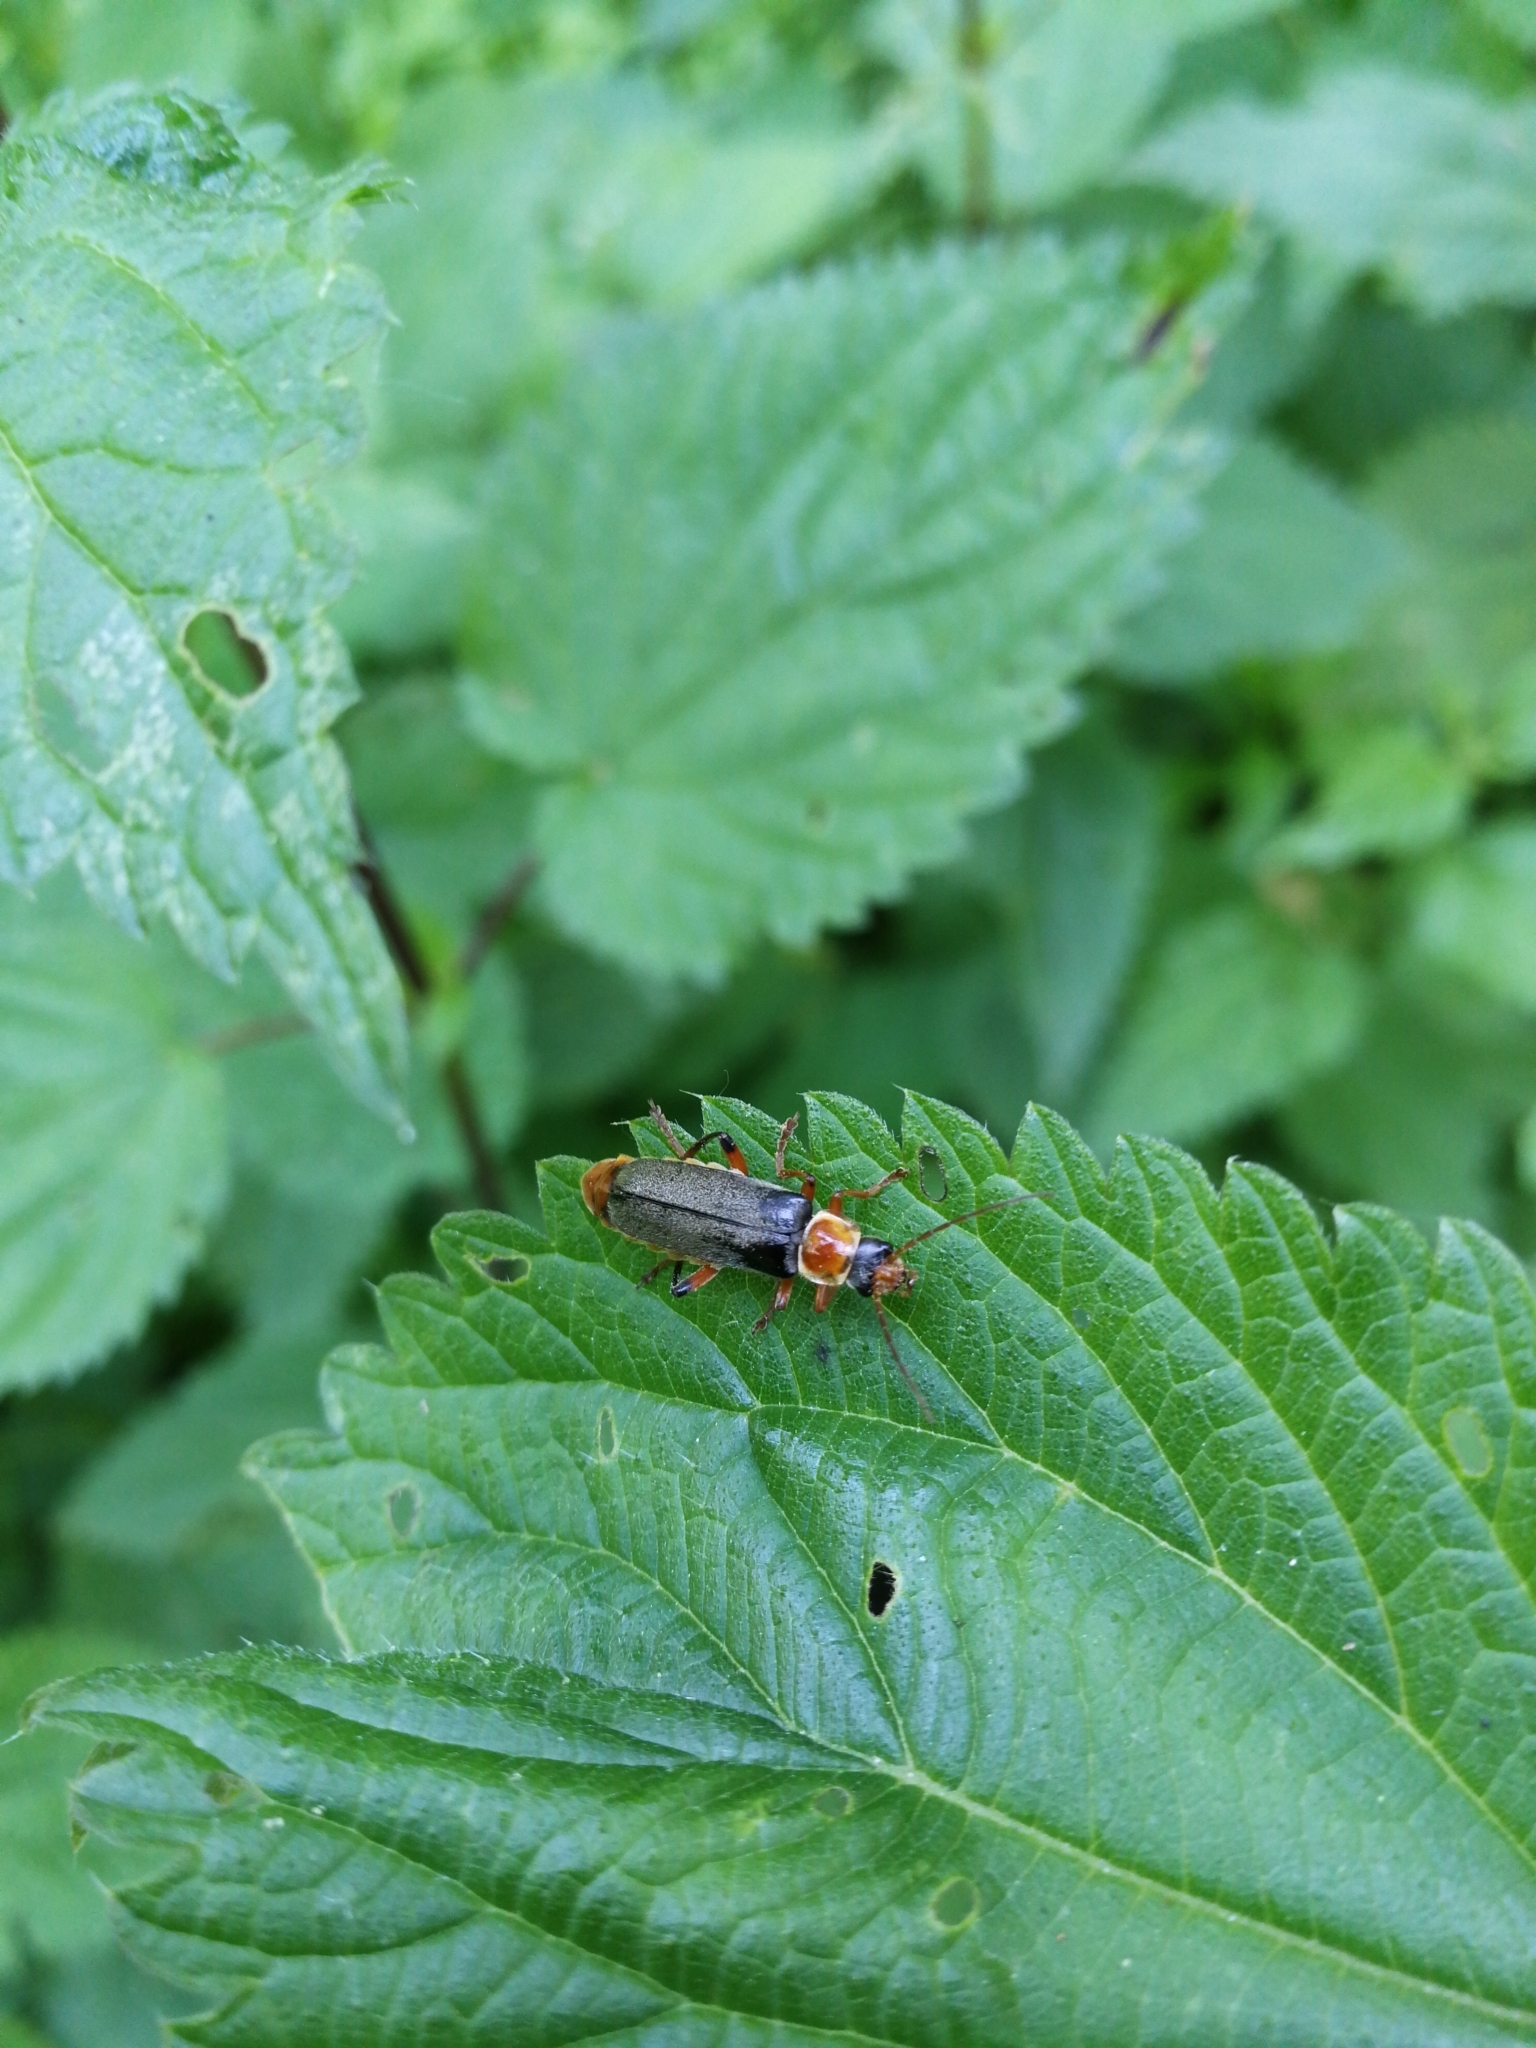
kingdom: Animalia
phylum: Arthropoda
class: Insecta
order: Coleoptera
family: Cantharidae
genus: Cantharis
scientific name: Cantharis nigricans
